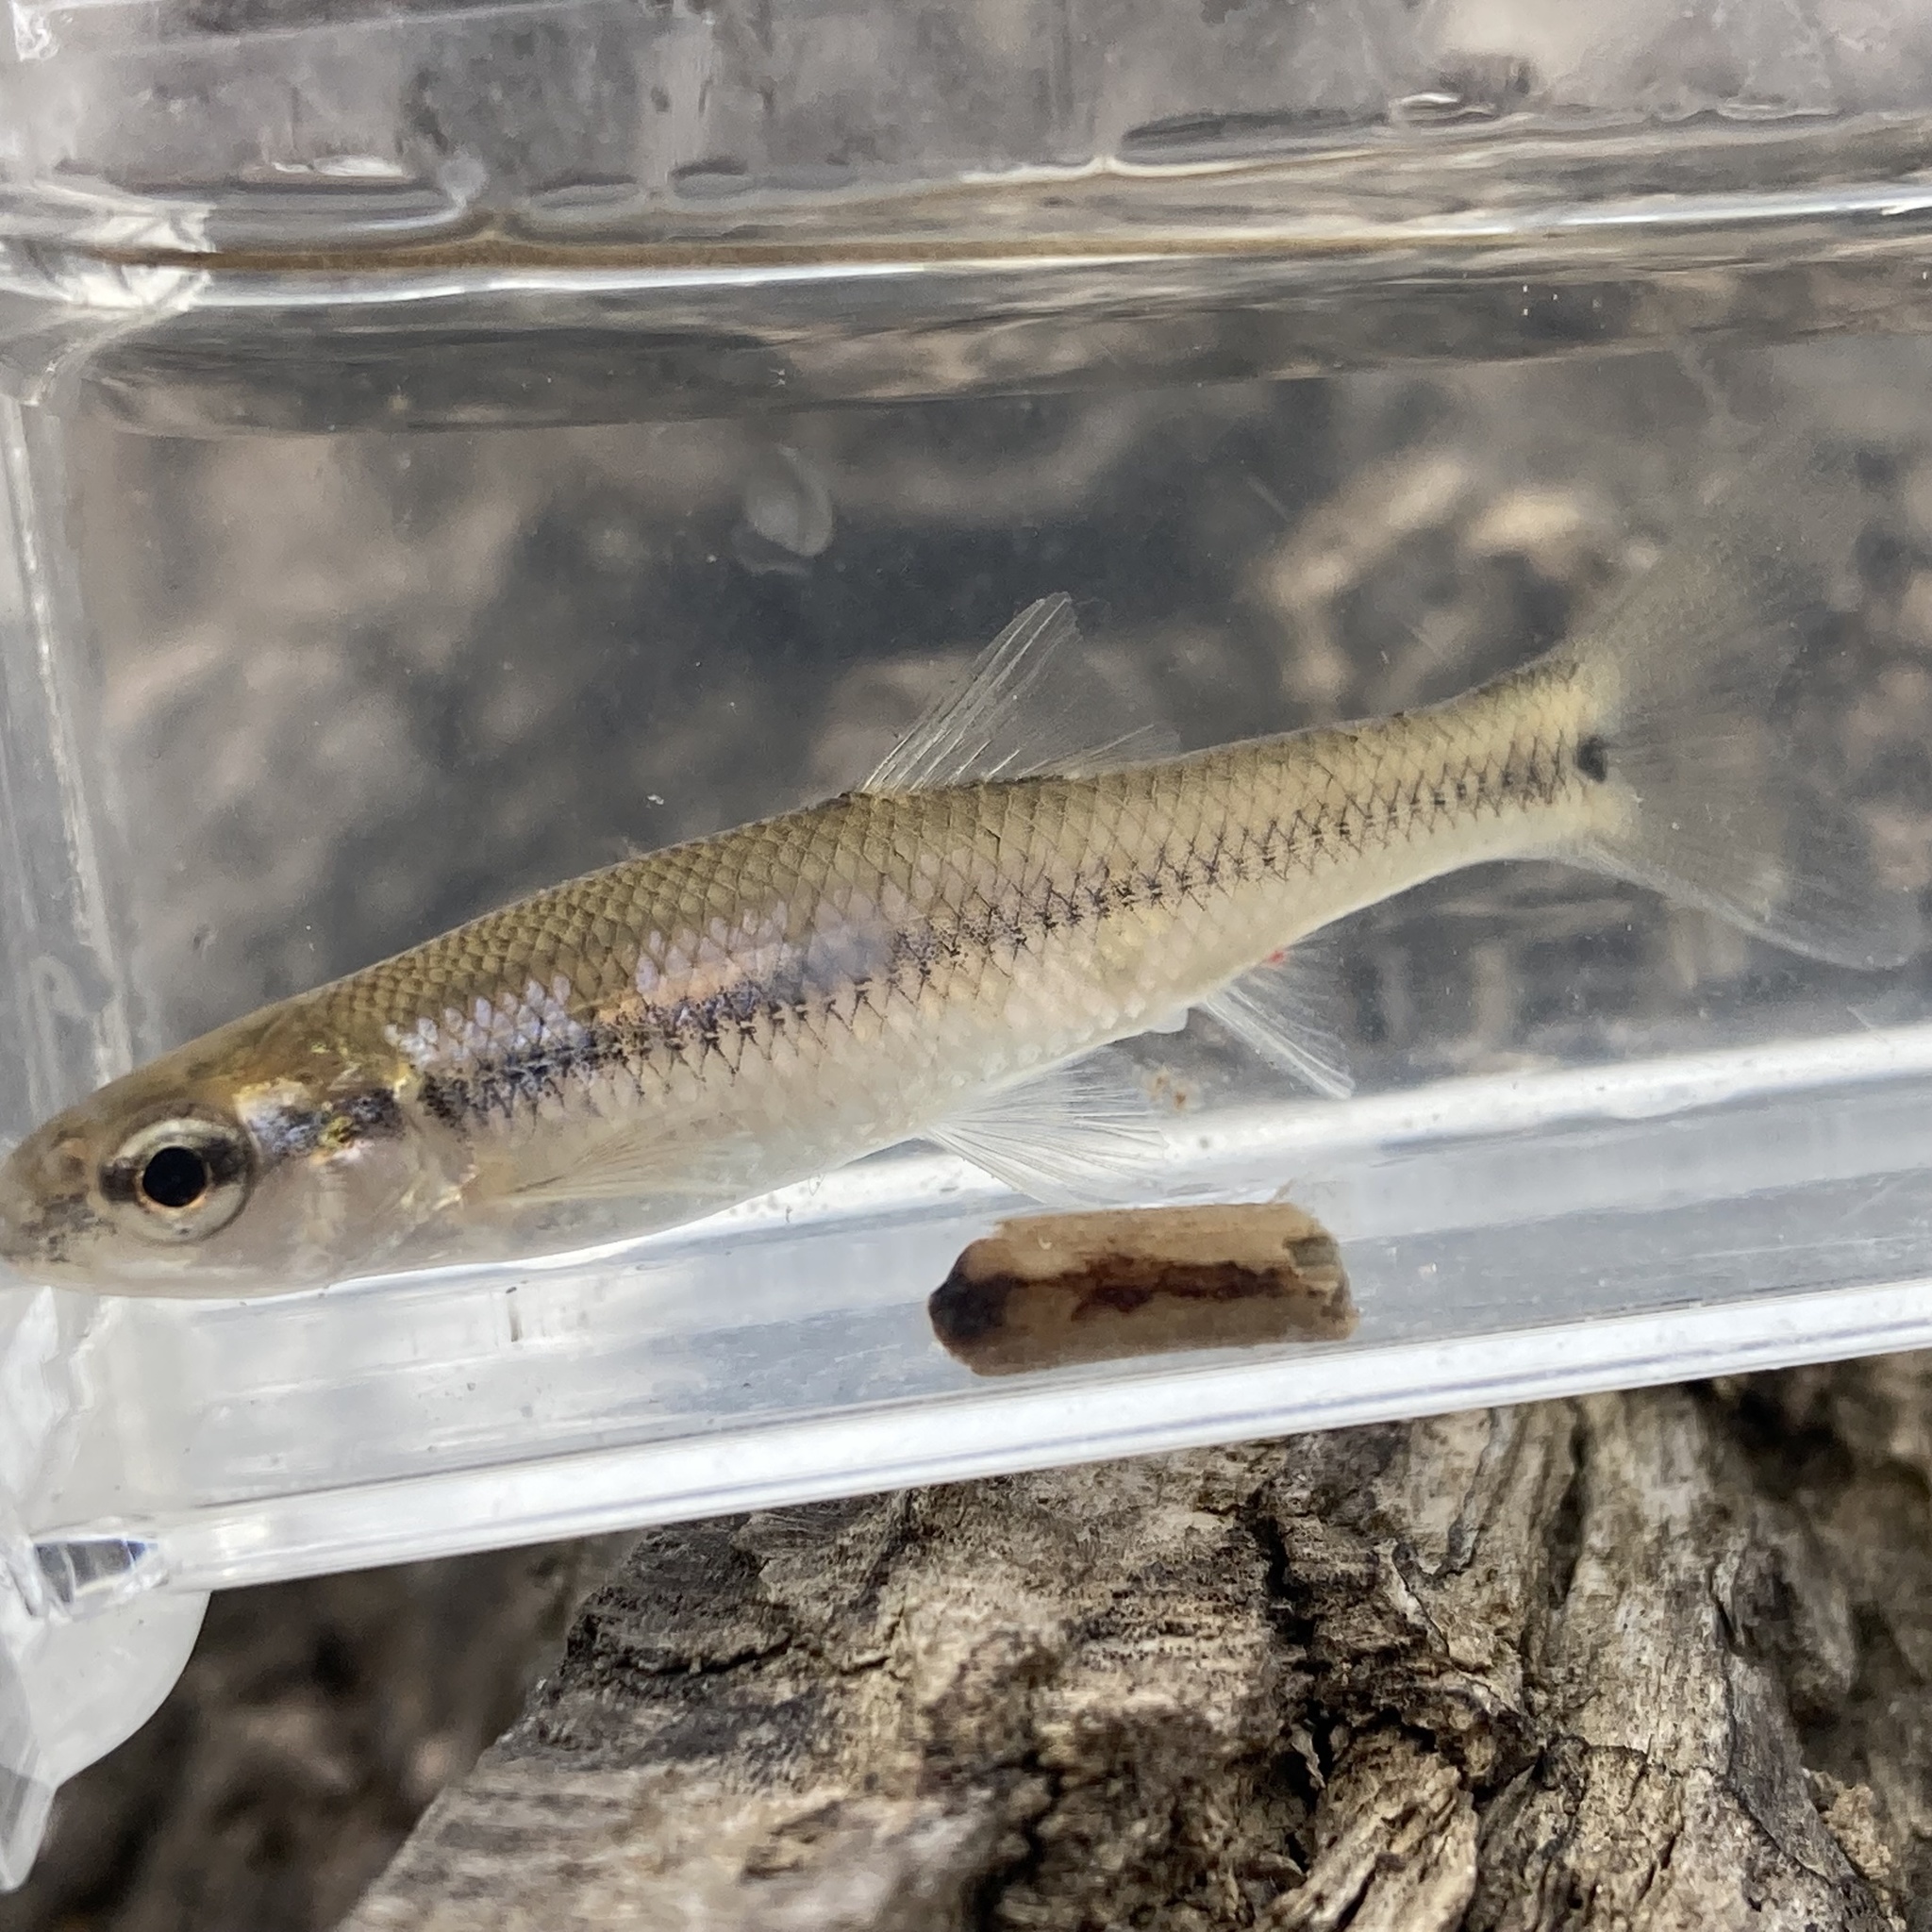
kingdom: Animalia
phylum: Chordata
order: Cypriniformes
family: Cyprinidae
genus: Pimephales
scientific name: Pimephales notatus
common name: Bluntnose minnow
